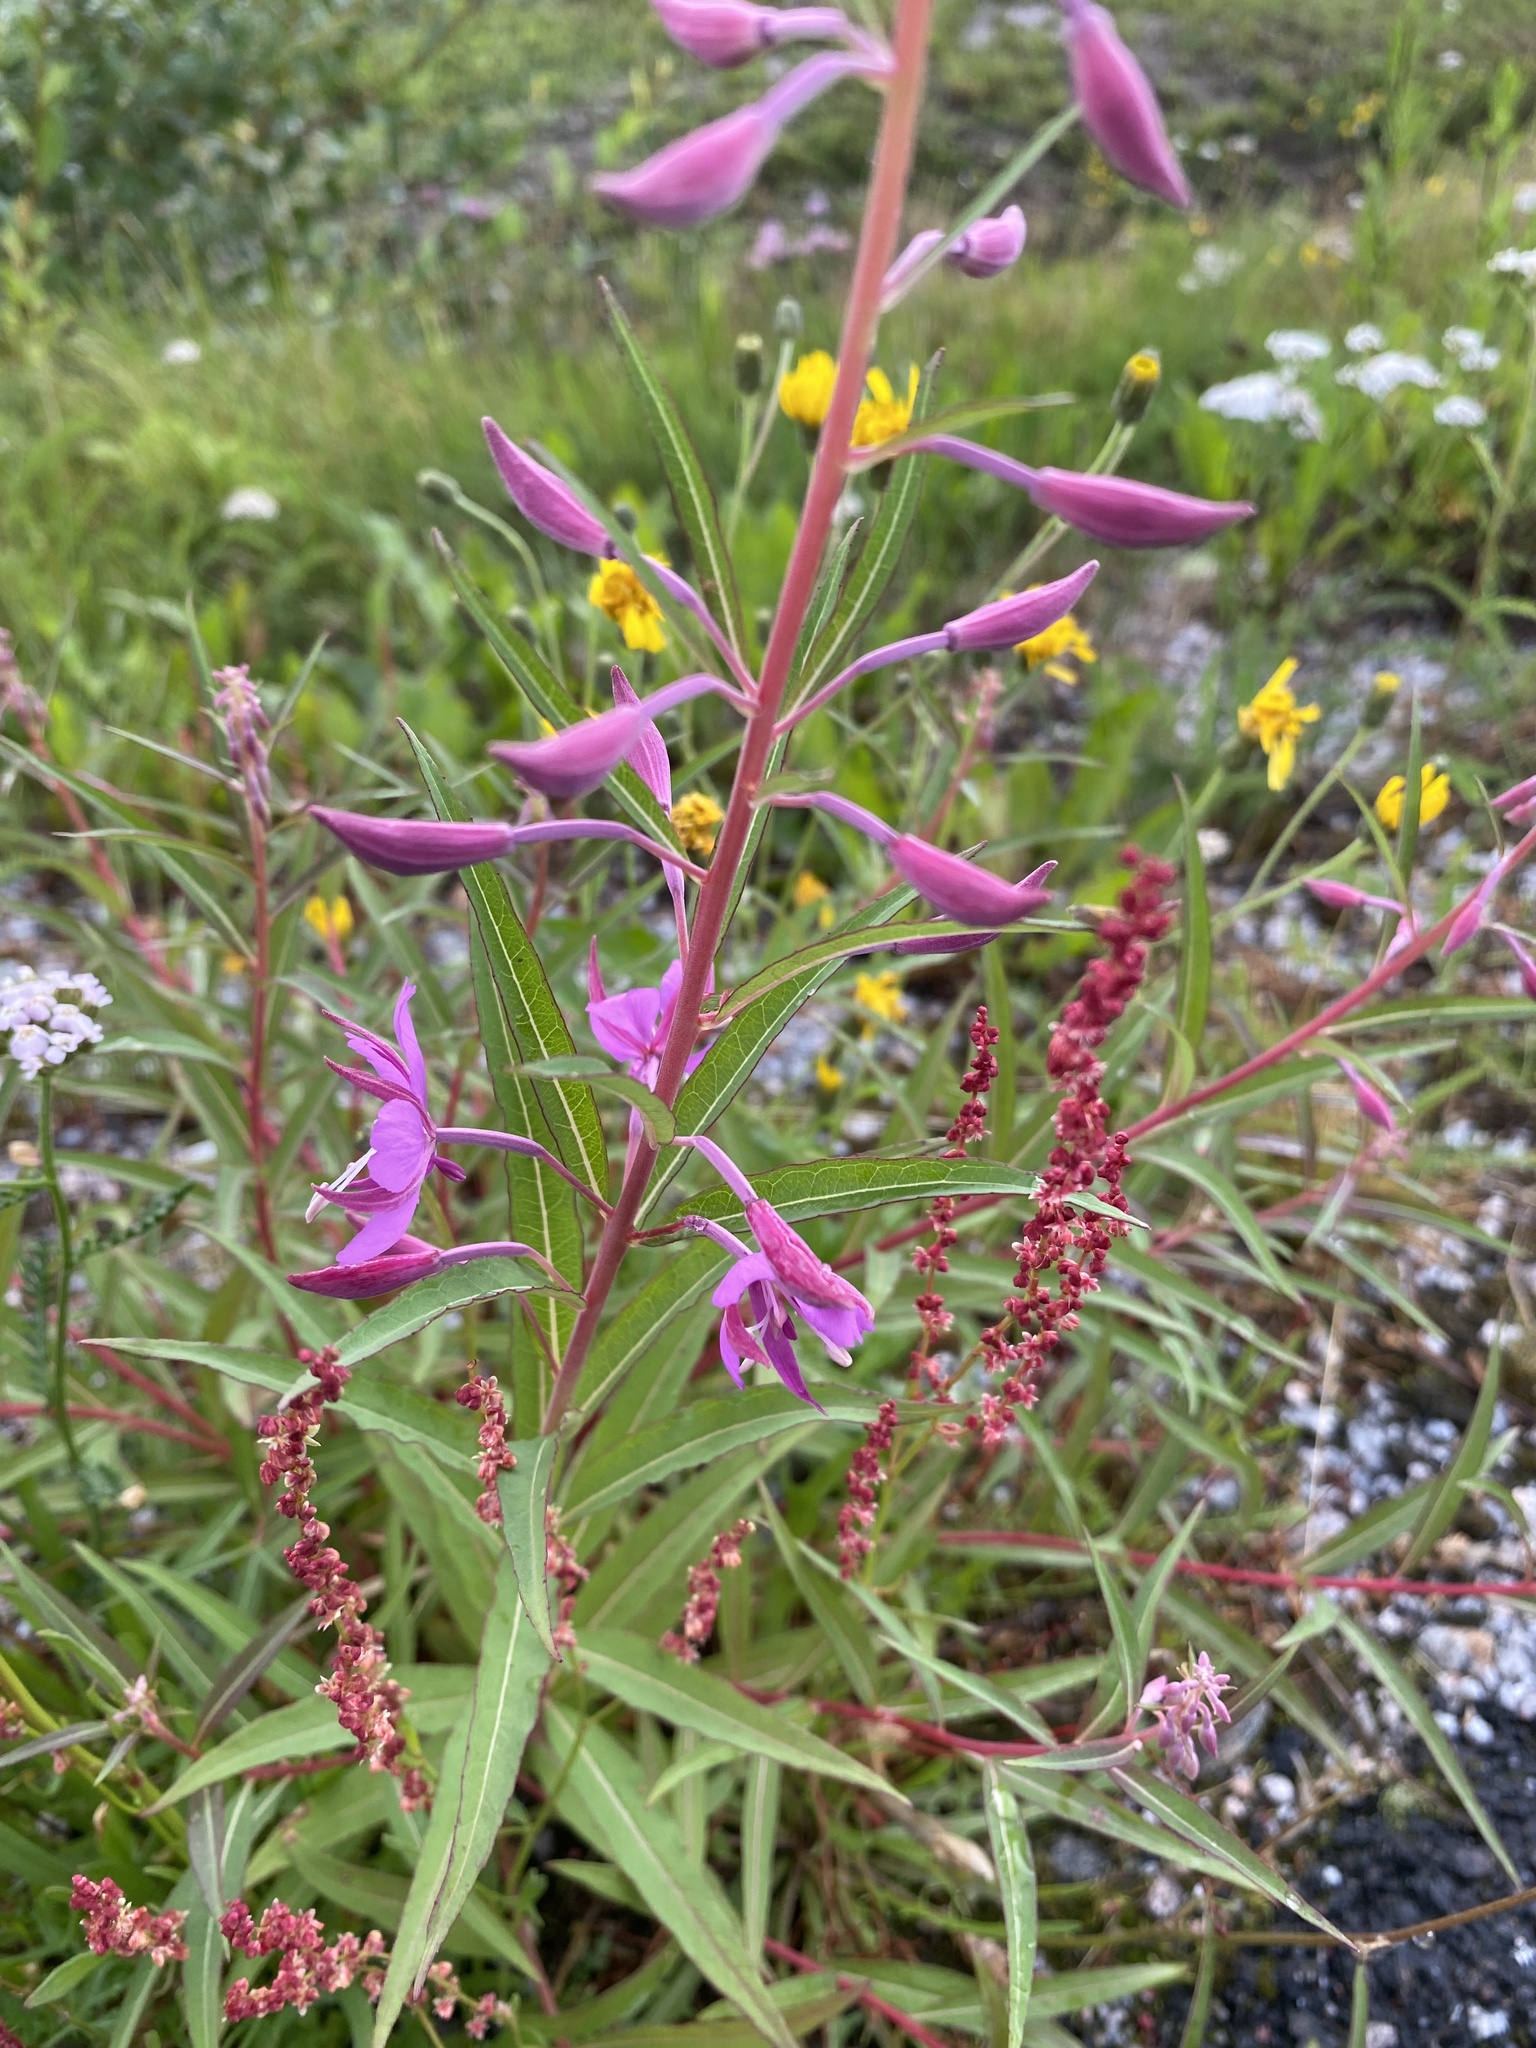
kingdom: Plantae
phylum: Tracheophyta
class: Magnoliopsida
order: Myrtales
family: Onagraceae
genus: Chamaenerion
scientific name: Chamaenerion angustifolium
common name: Fireweed
